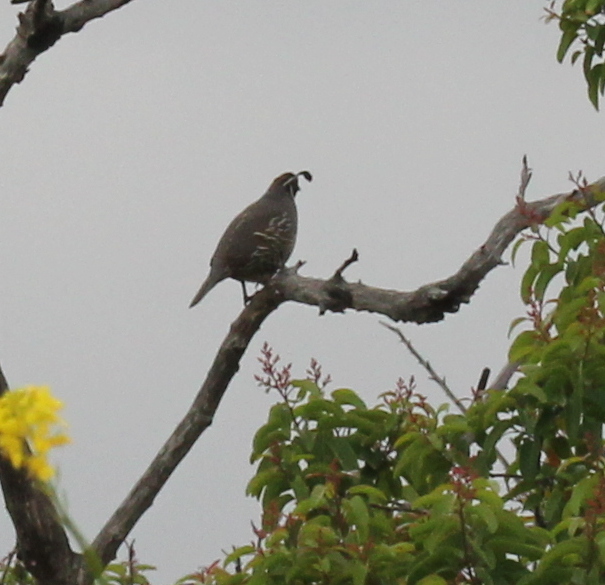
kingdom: Animalia
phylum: Chordata
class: Aves
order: Galliformes
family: Odontophoridae
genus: Callipepla
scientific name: Callipepla californica
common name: California quail
